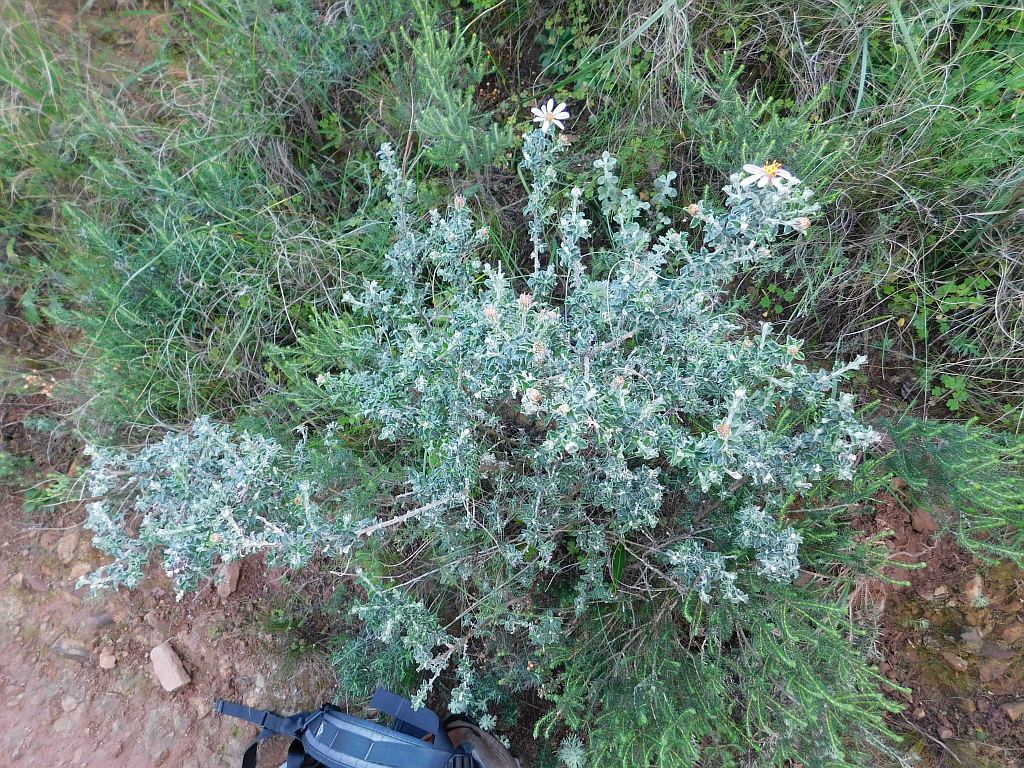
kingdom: Plantae
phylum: Tracheophyta
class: Magnoliopsida
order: Asterales
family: Asteraceae
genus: Printzia
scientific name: Printzia polifolia
